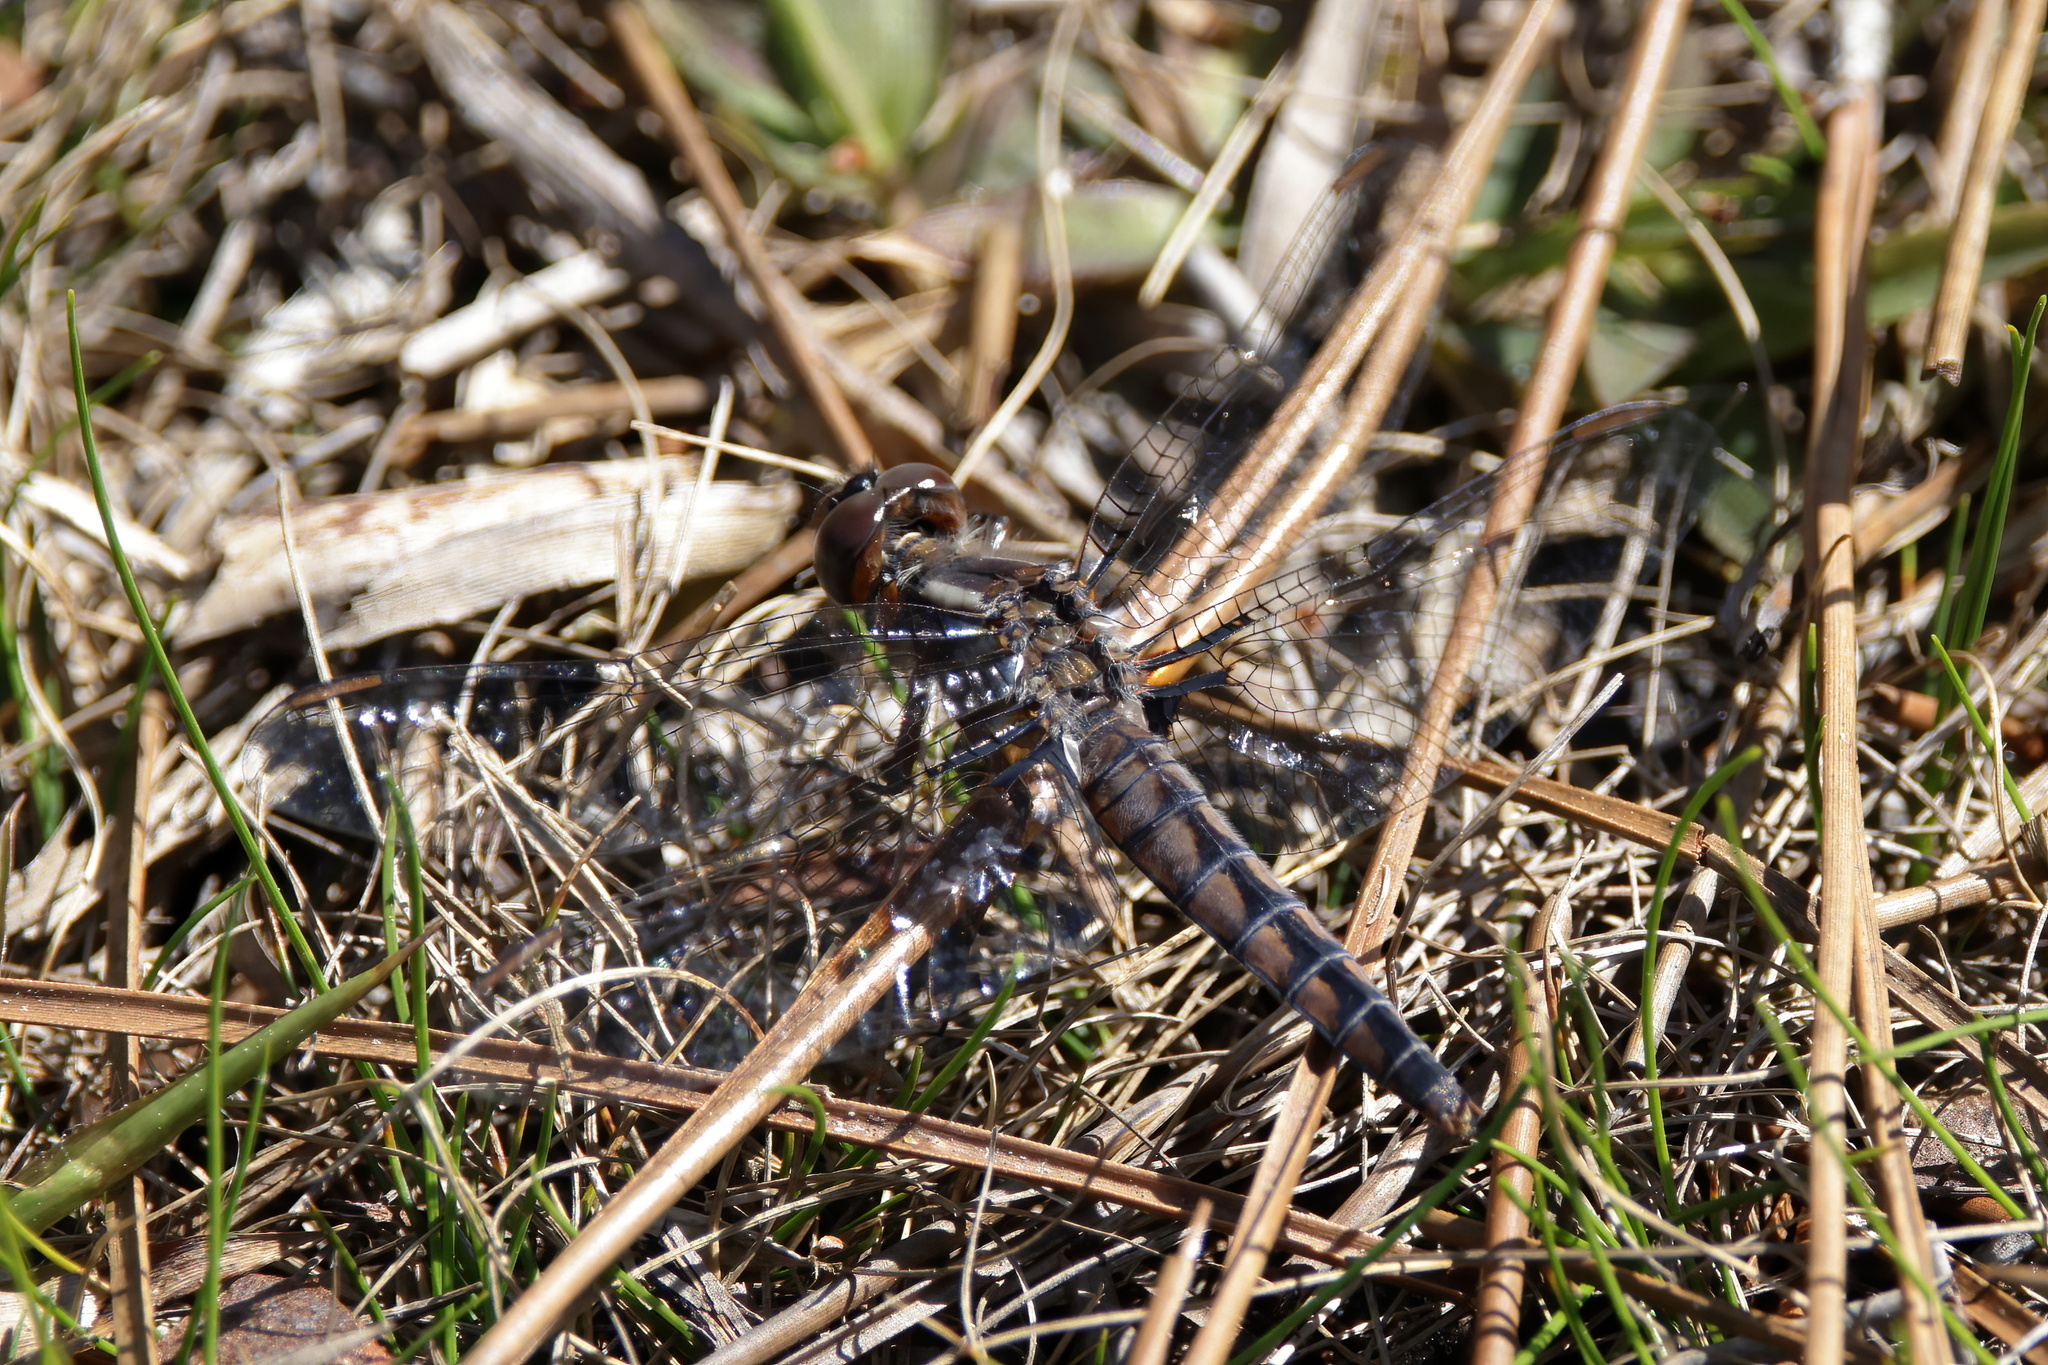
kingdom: Animalia
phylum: Arthropoda
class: Insecta
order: Odonata
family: Libellulidae
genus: Ladona
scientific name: Ladona deplanata
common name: Blue corporal
